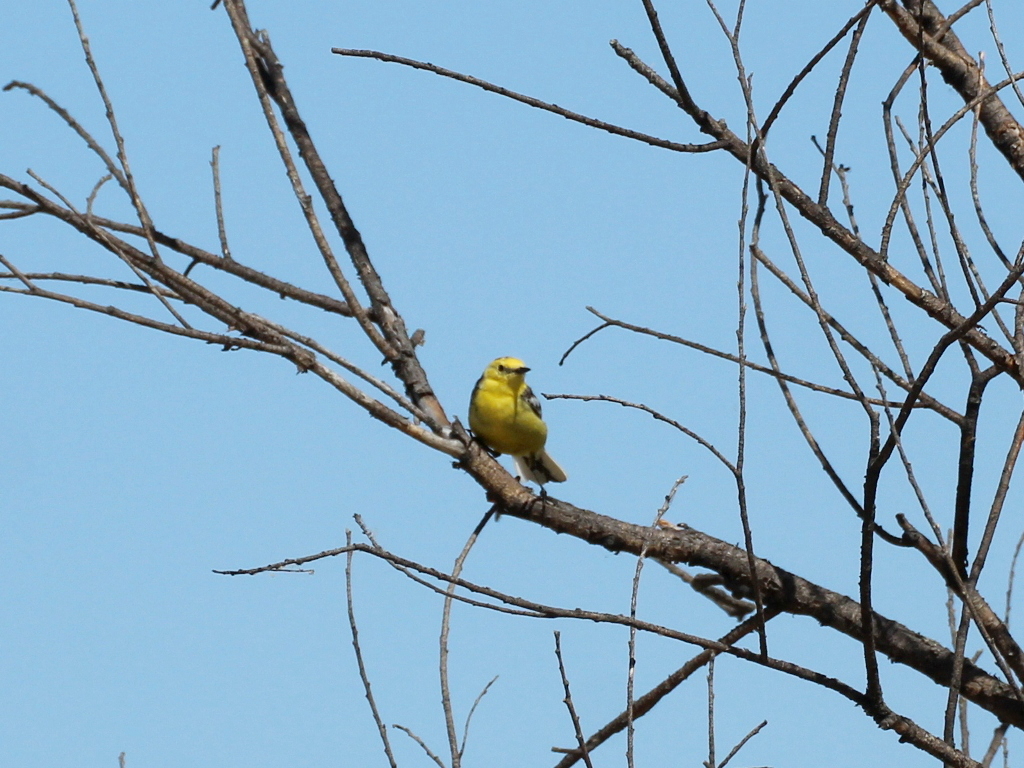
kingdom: Animalia
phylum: Chordata
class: Aves
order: Passeriformes
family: Motacillidae
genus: Motacilla
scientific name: Motacilla citreola
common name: Citrine wagtail
